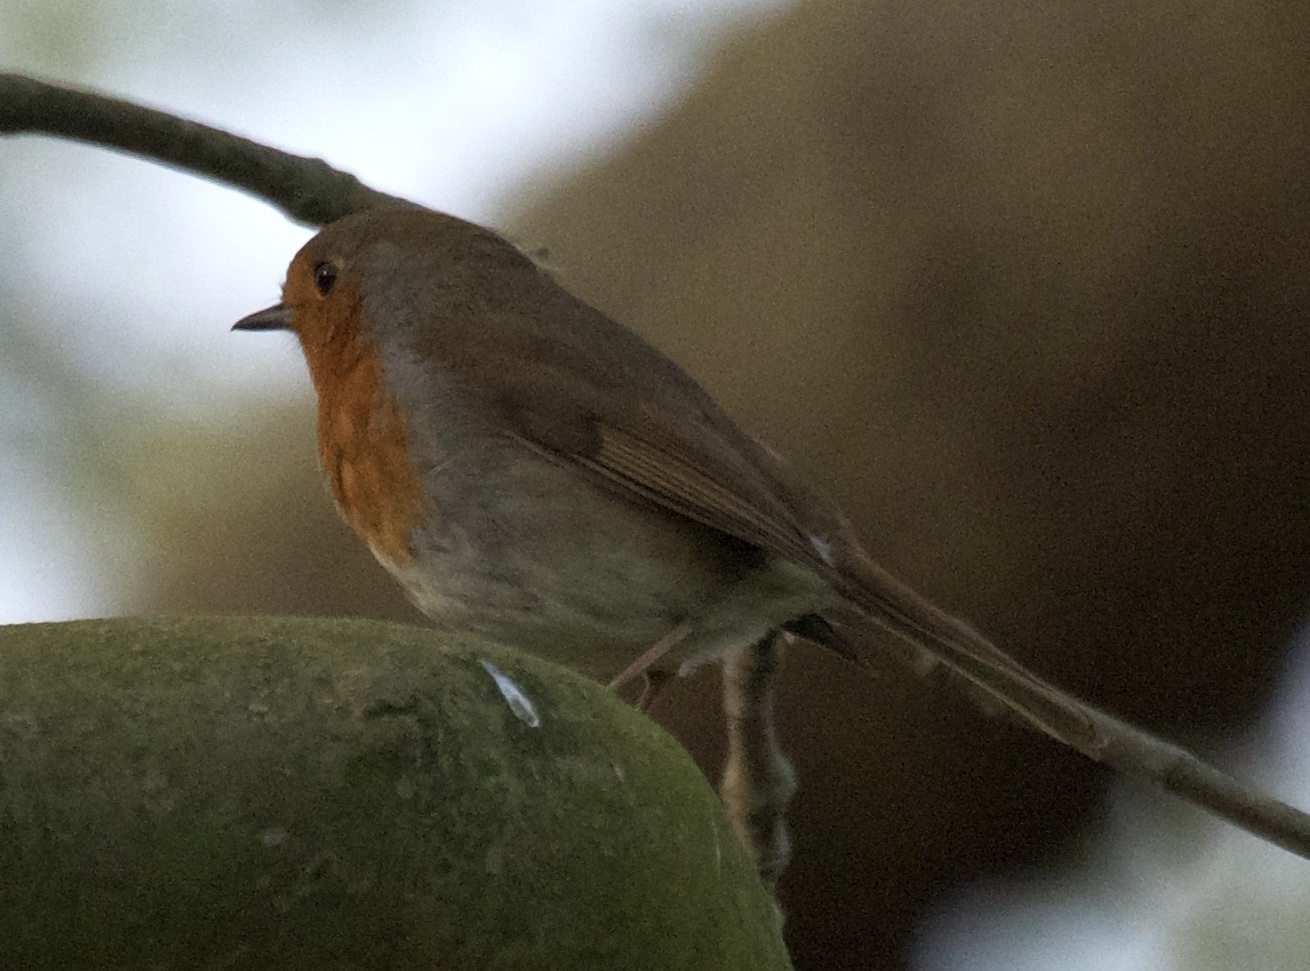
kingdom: Animalia
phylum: Chordata
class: Aves
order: Passeriformes
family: Muscicapidae
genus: Erithacus
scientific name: Erithacus rubecula
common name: European robin
